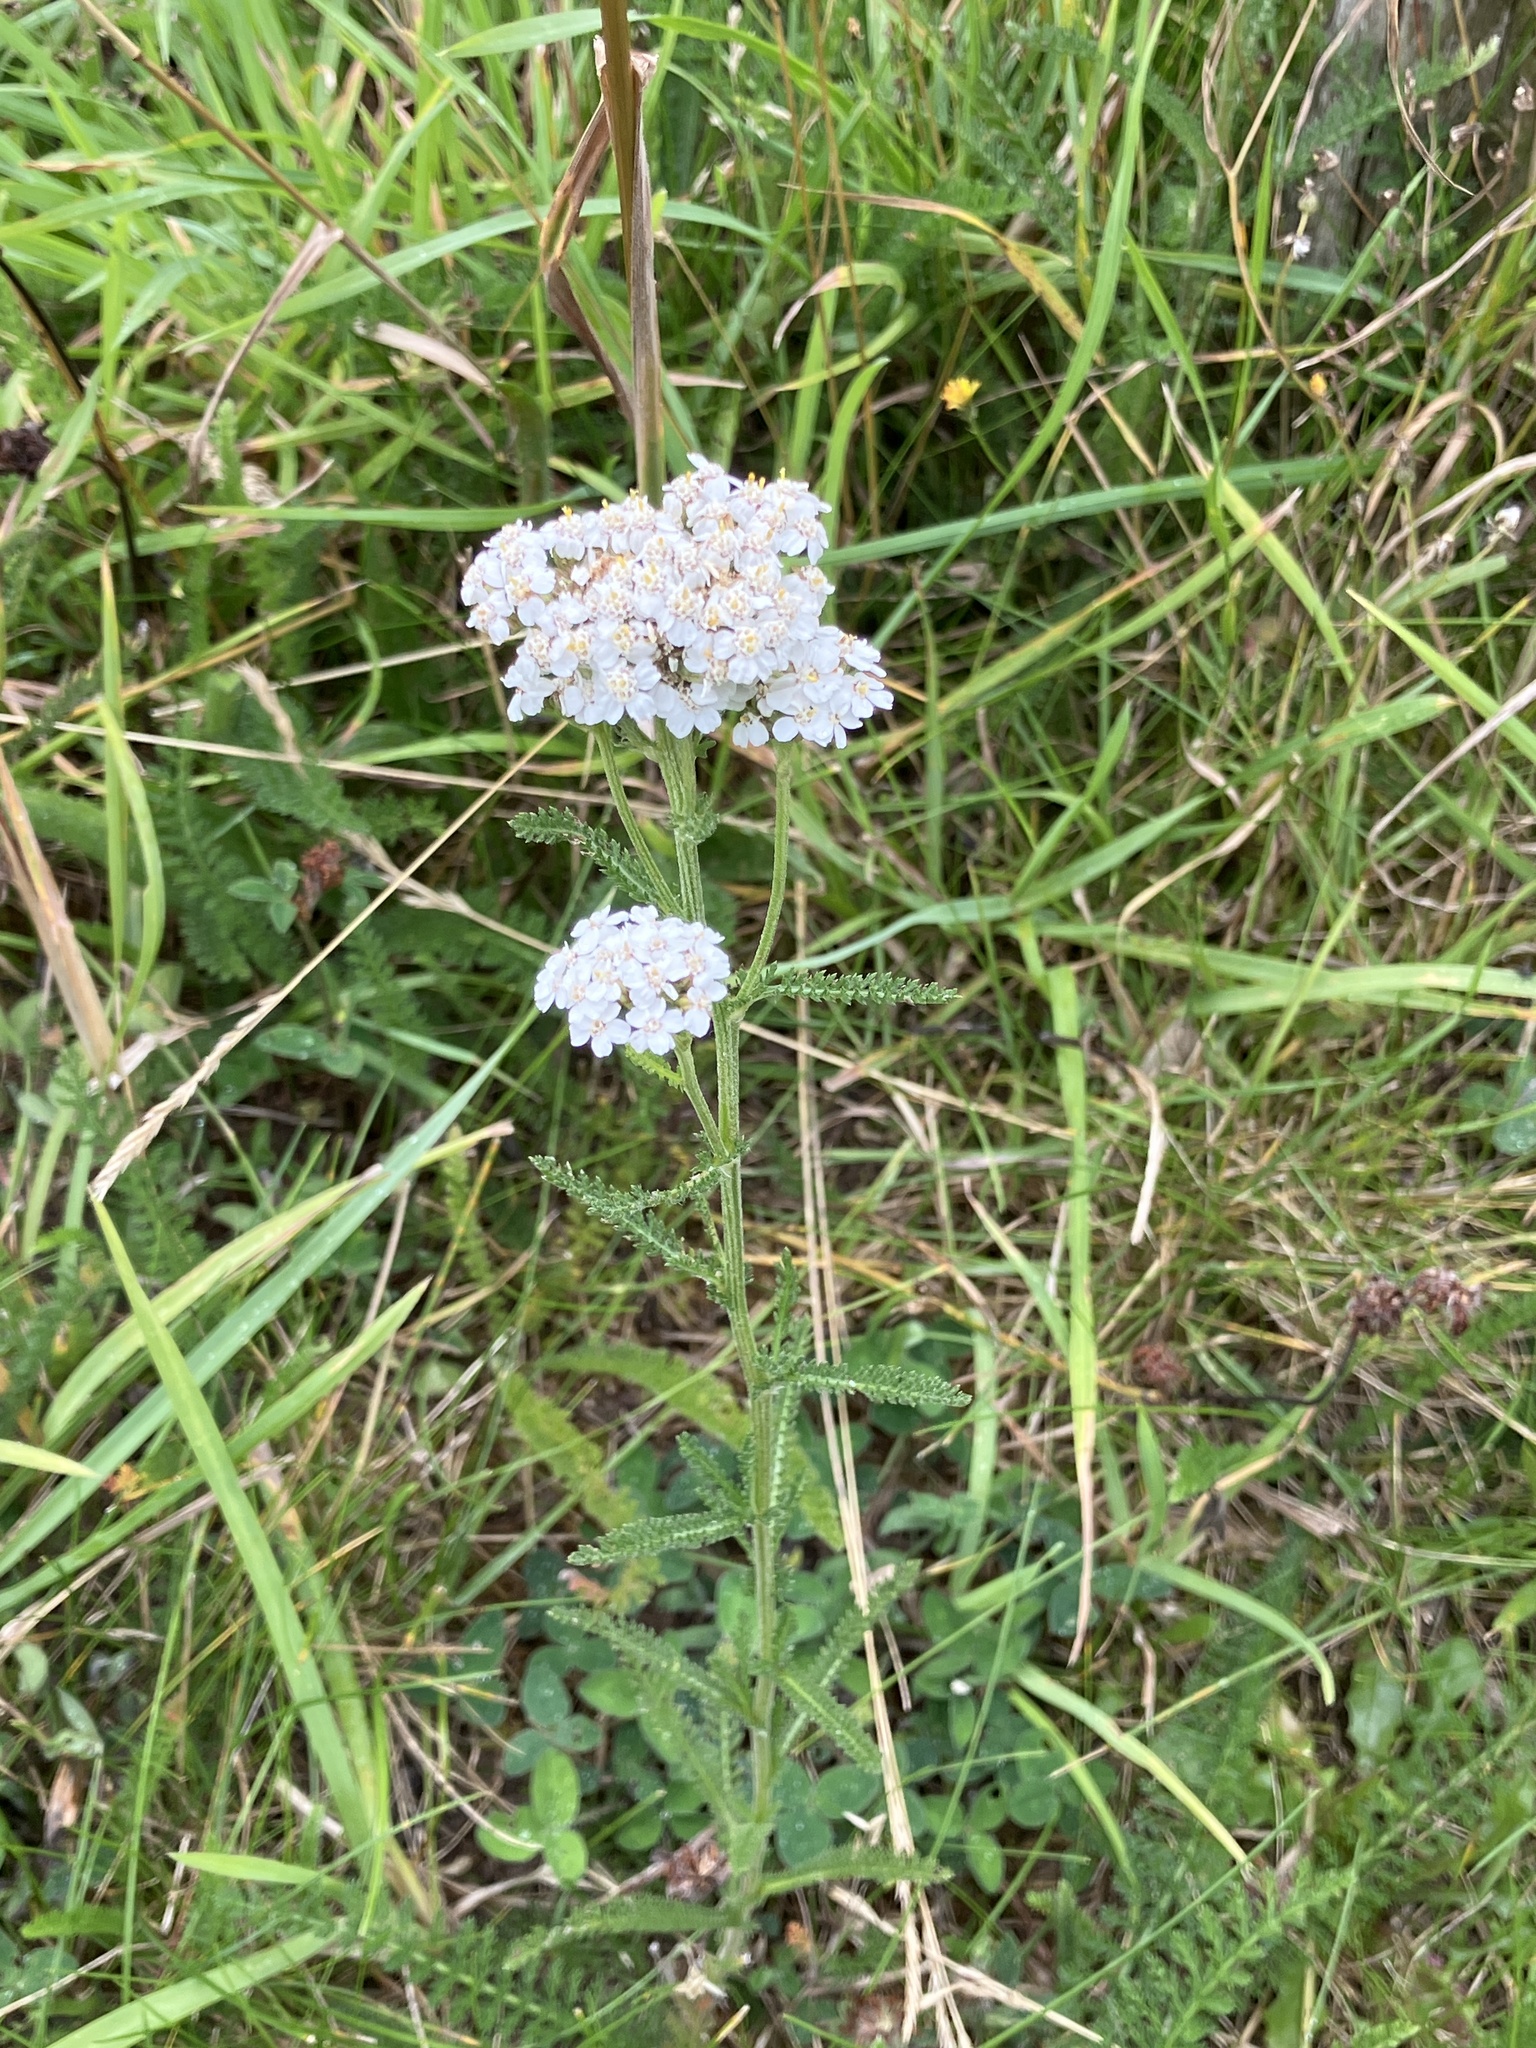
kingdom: Plantae
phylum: Tracheophyta
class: Magnoliopsida
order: Asterales
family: Asteraceae
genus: Achillea
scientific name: Achillea millefolium
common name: Yarrow
